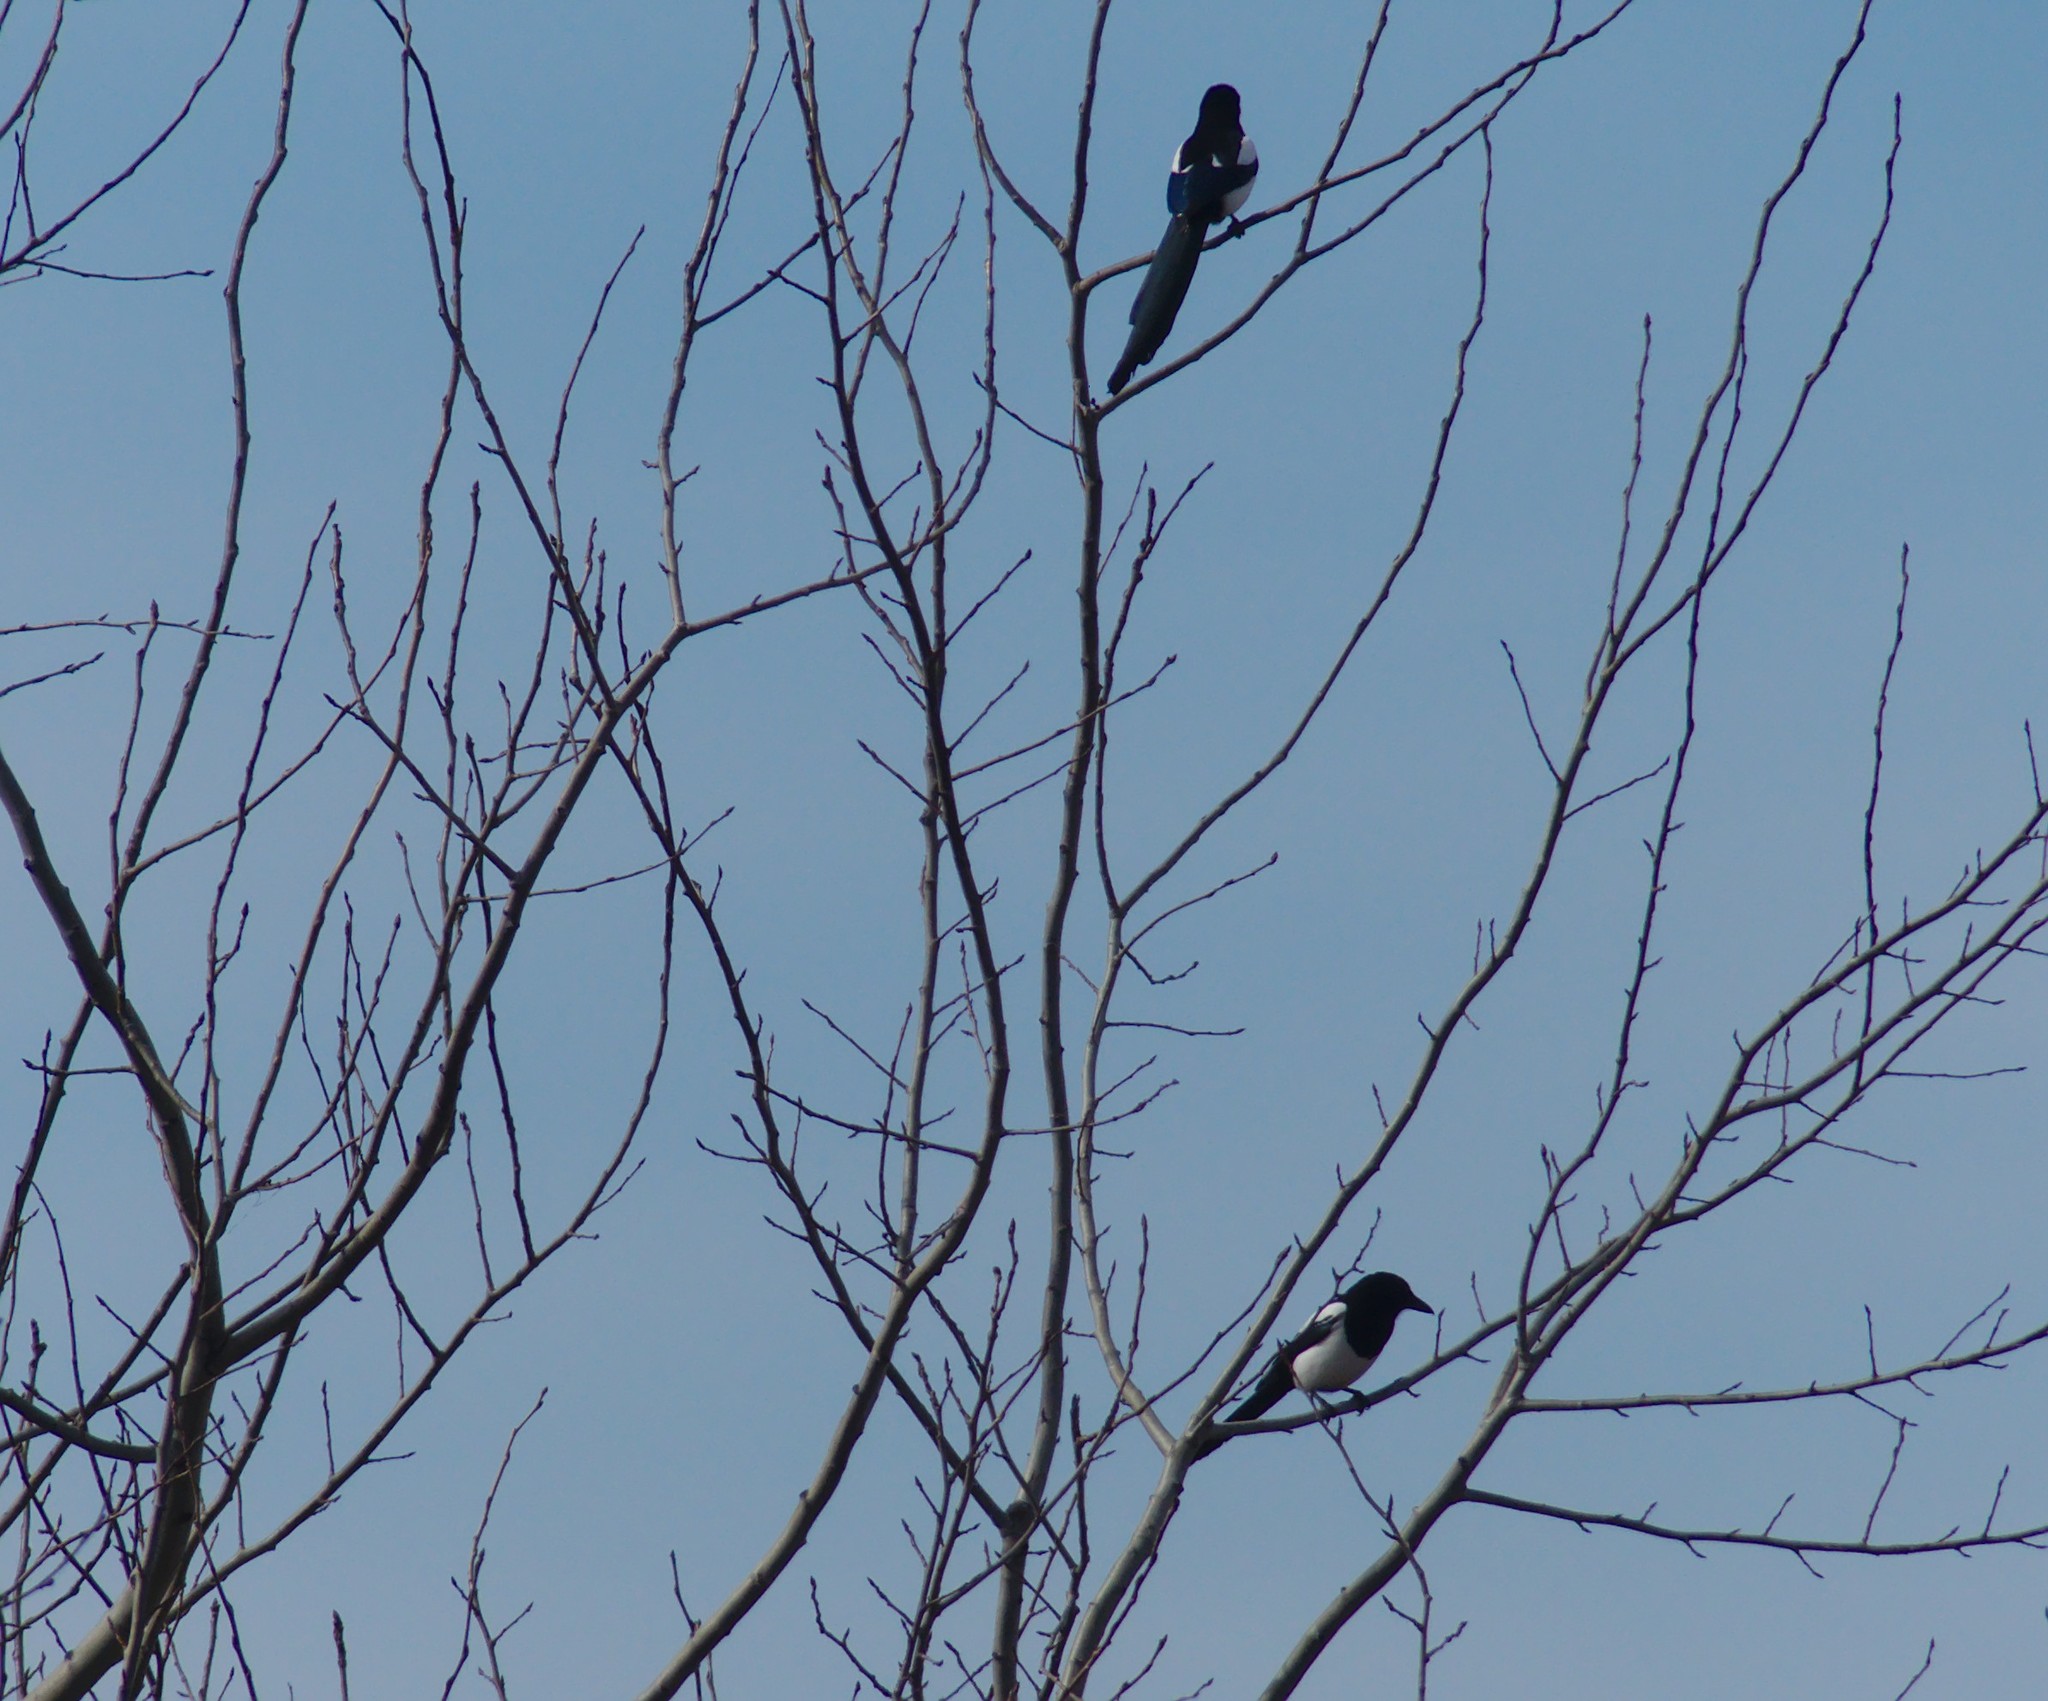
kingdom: Animalia
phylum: Chordata
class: Aves
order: Passeriformes
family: Corvidae
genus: Pica
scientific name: Pica pica
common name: Eurasian magpie
